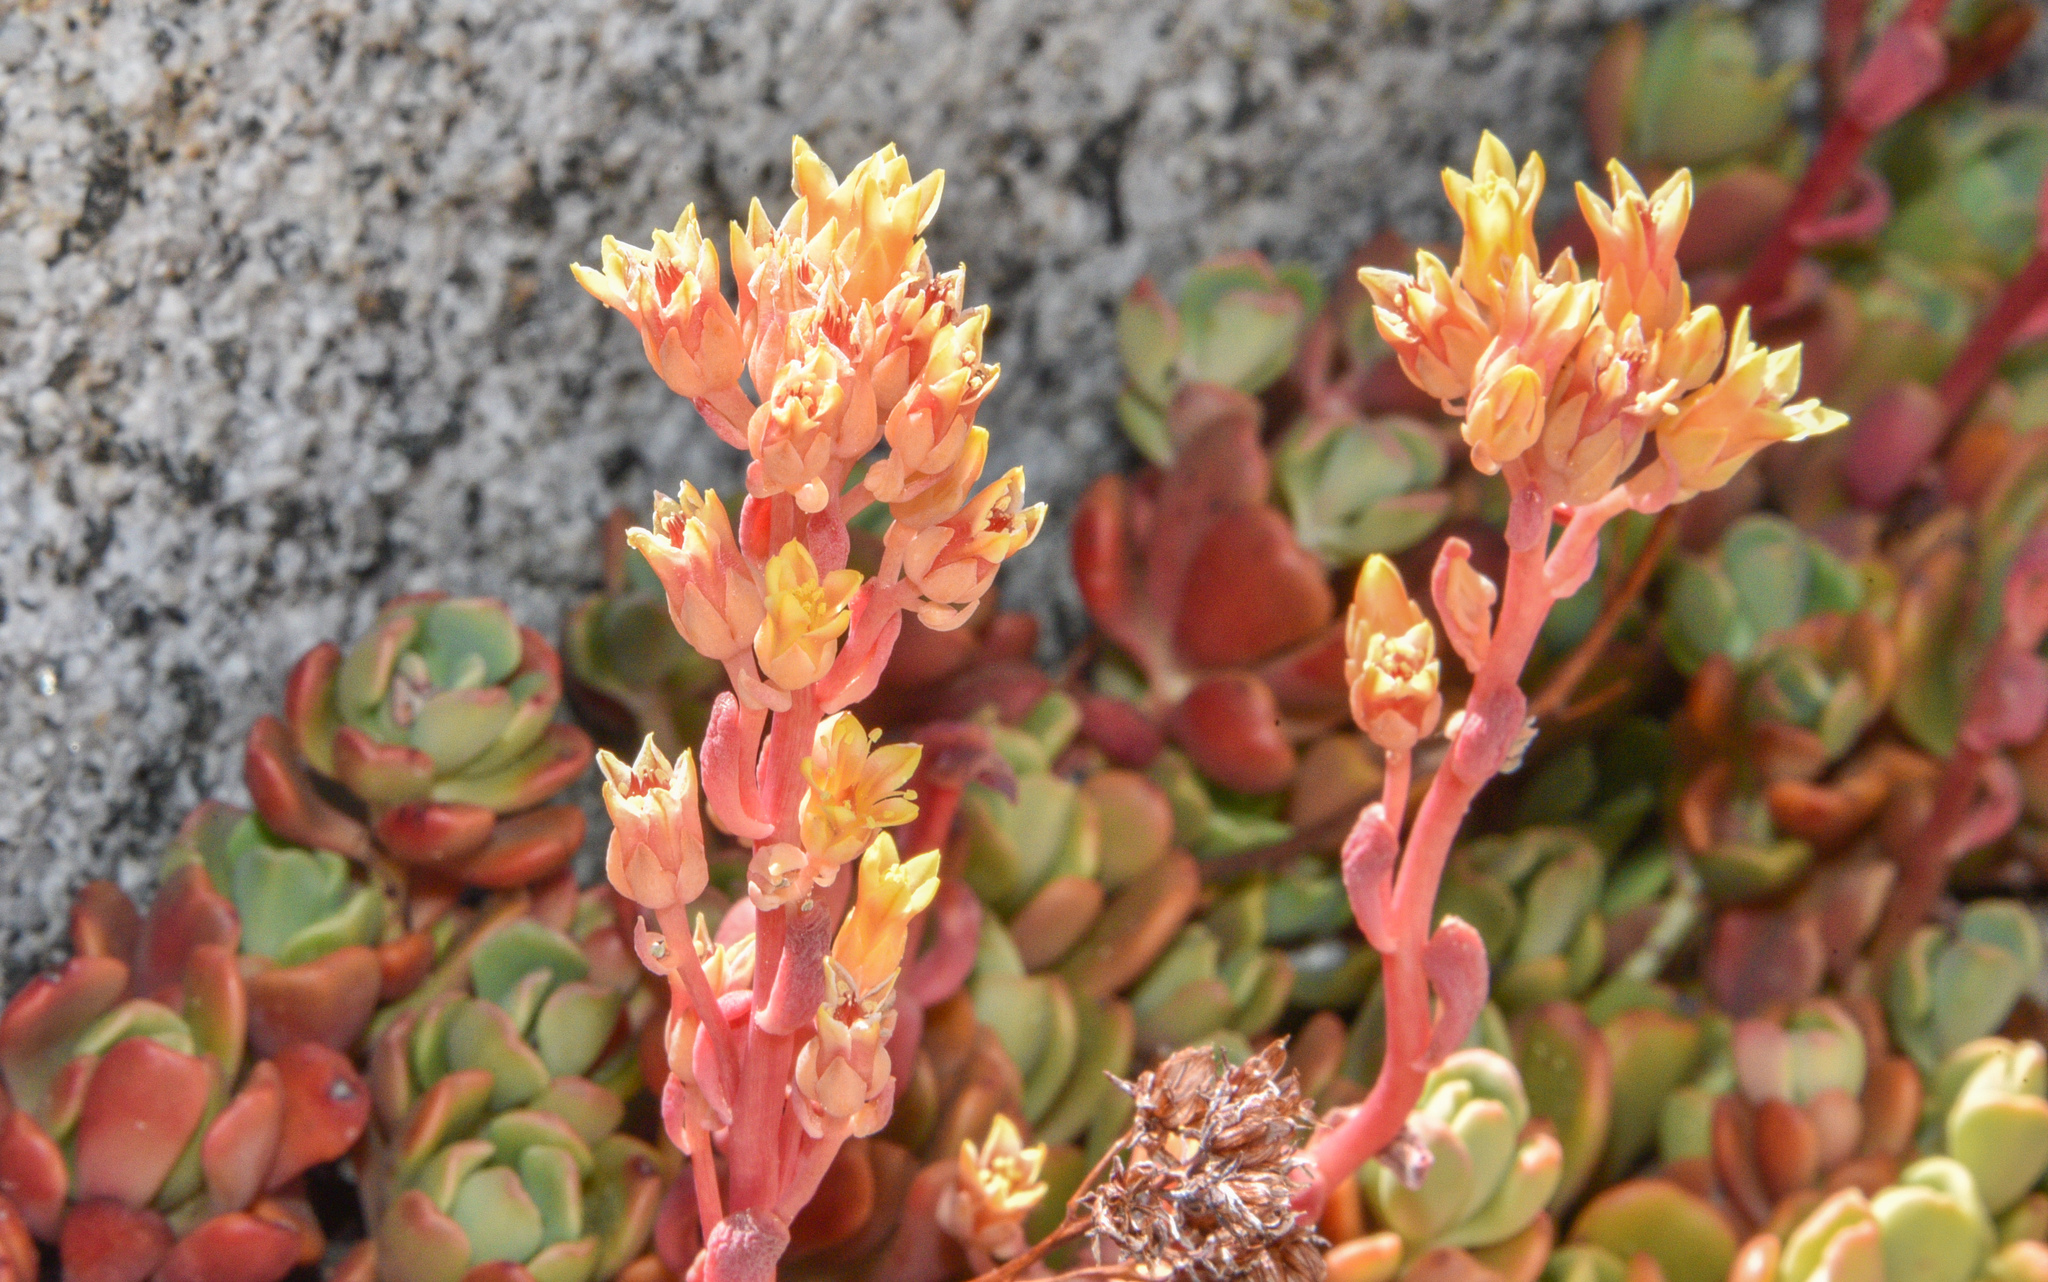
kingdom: Plantae
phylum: Tracheophyta
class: Magnoliopsida
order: Saxifragales
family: Crassulaceae
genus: Sedum
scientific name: Sedum obtusatum
